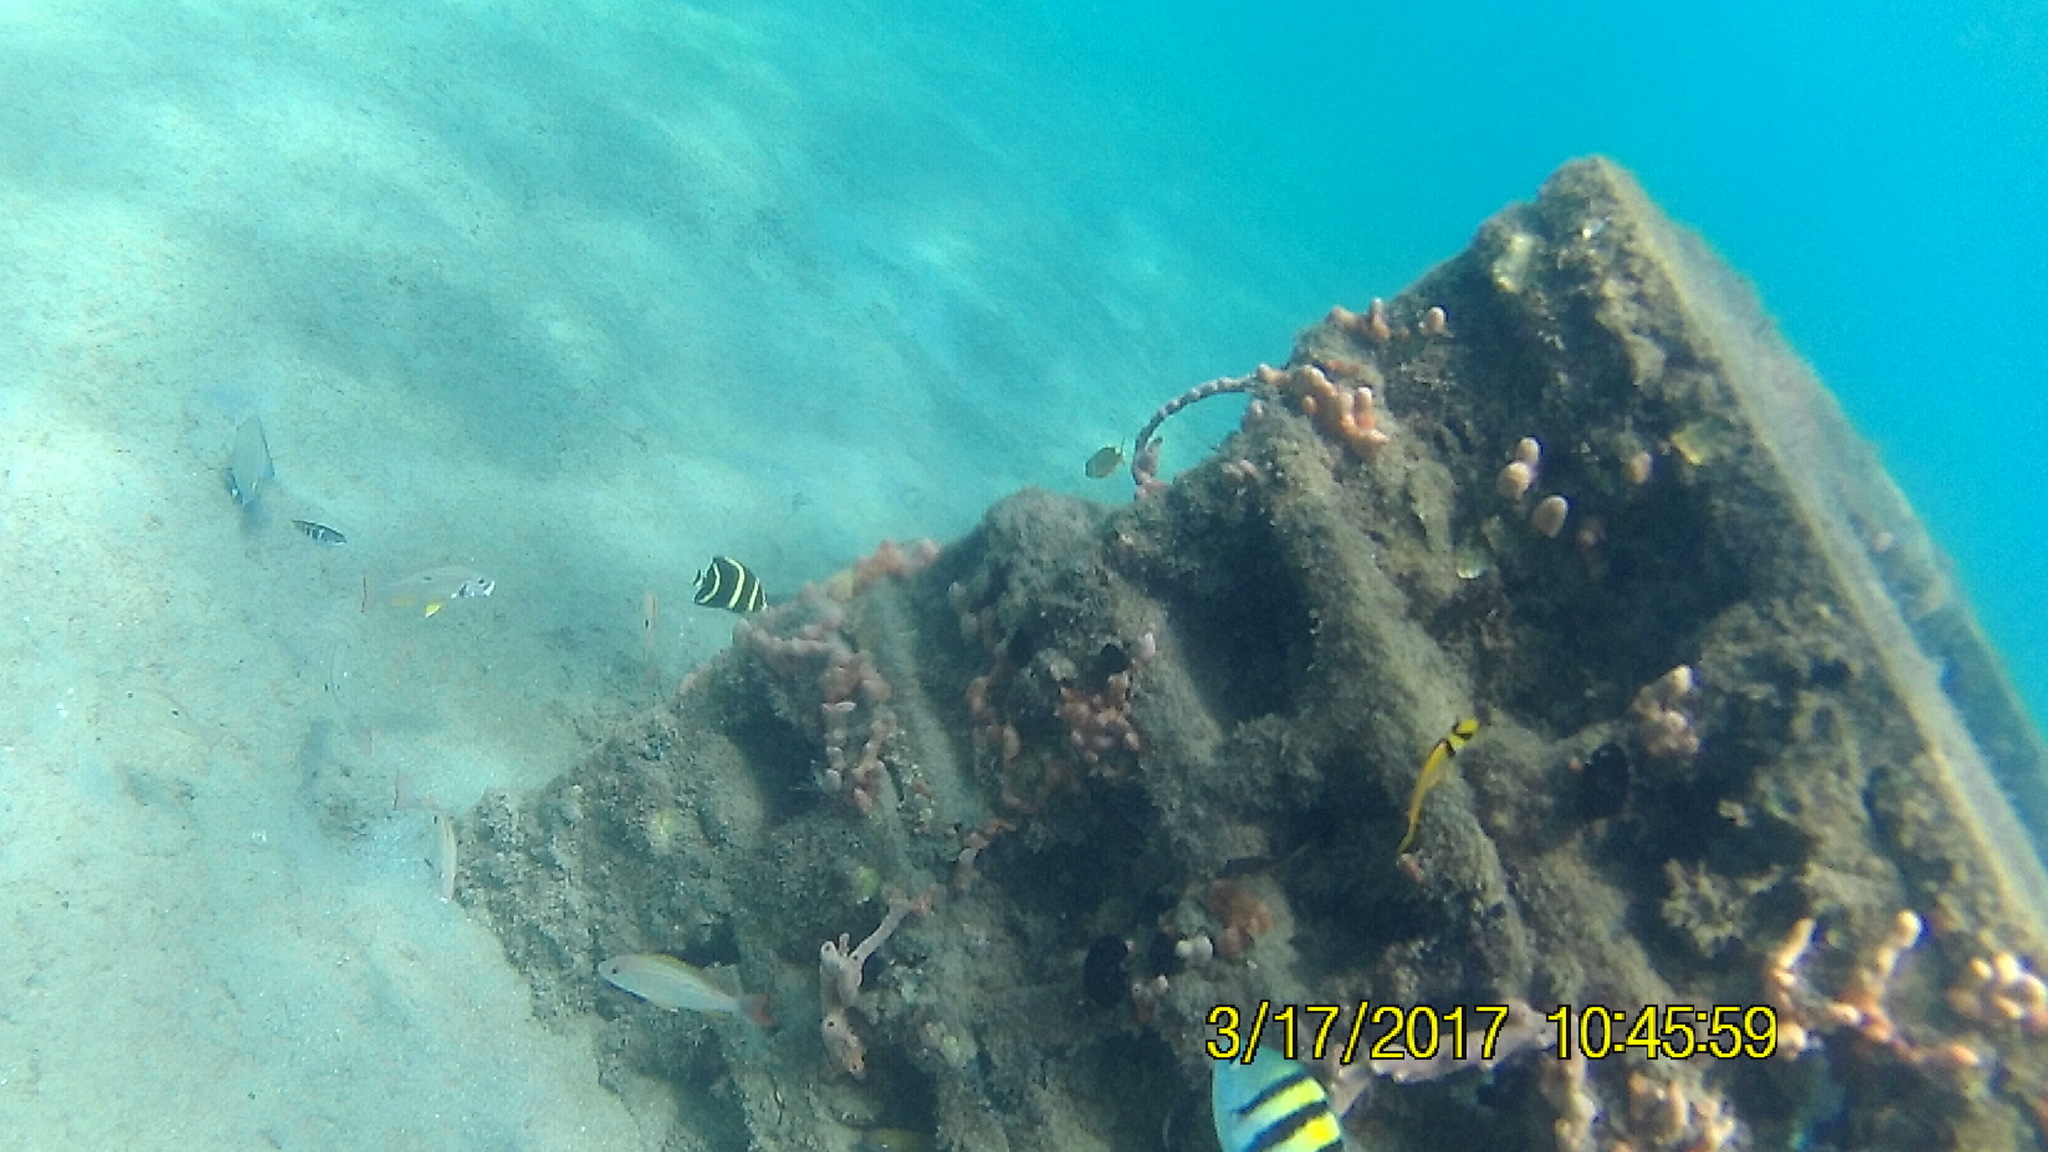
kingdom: Animalia
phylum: Chordata
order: Perciformes
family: Pomacanthidae
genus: Pomacanthus
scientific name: Pomacanthus paru
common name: French angelfish
